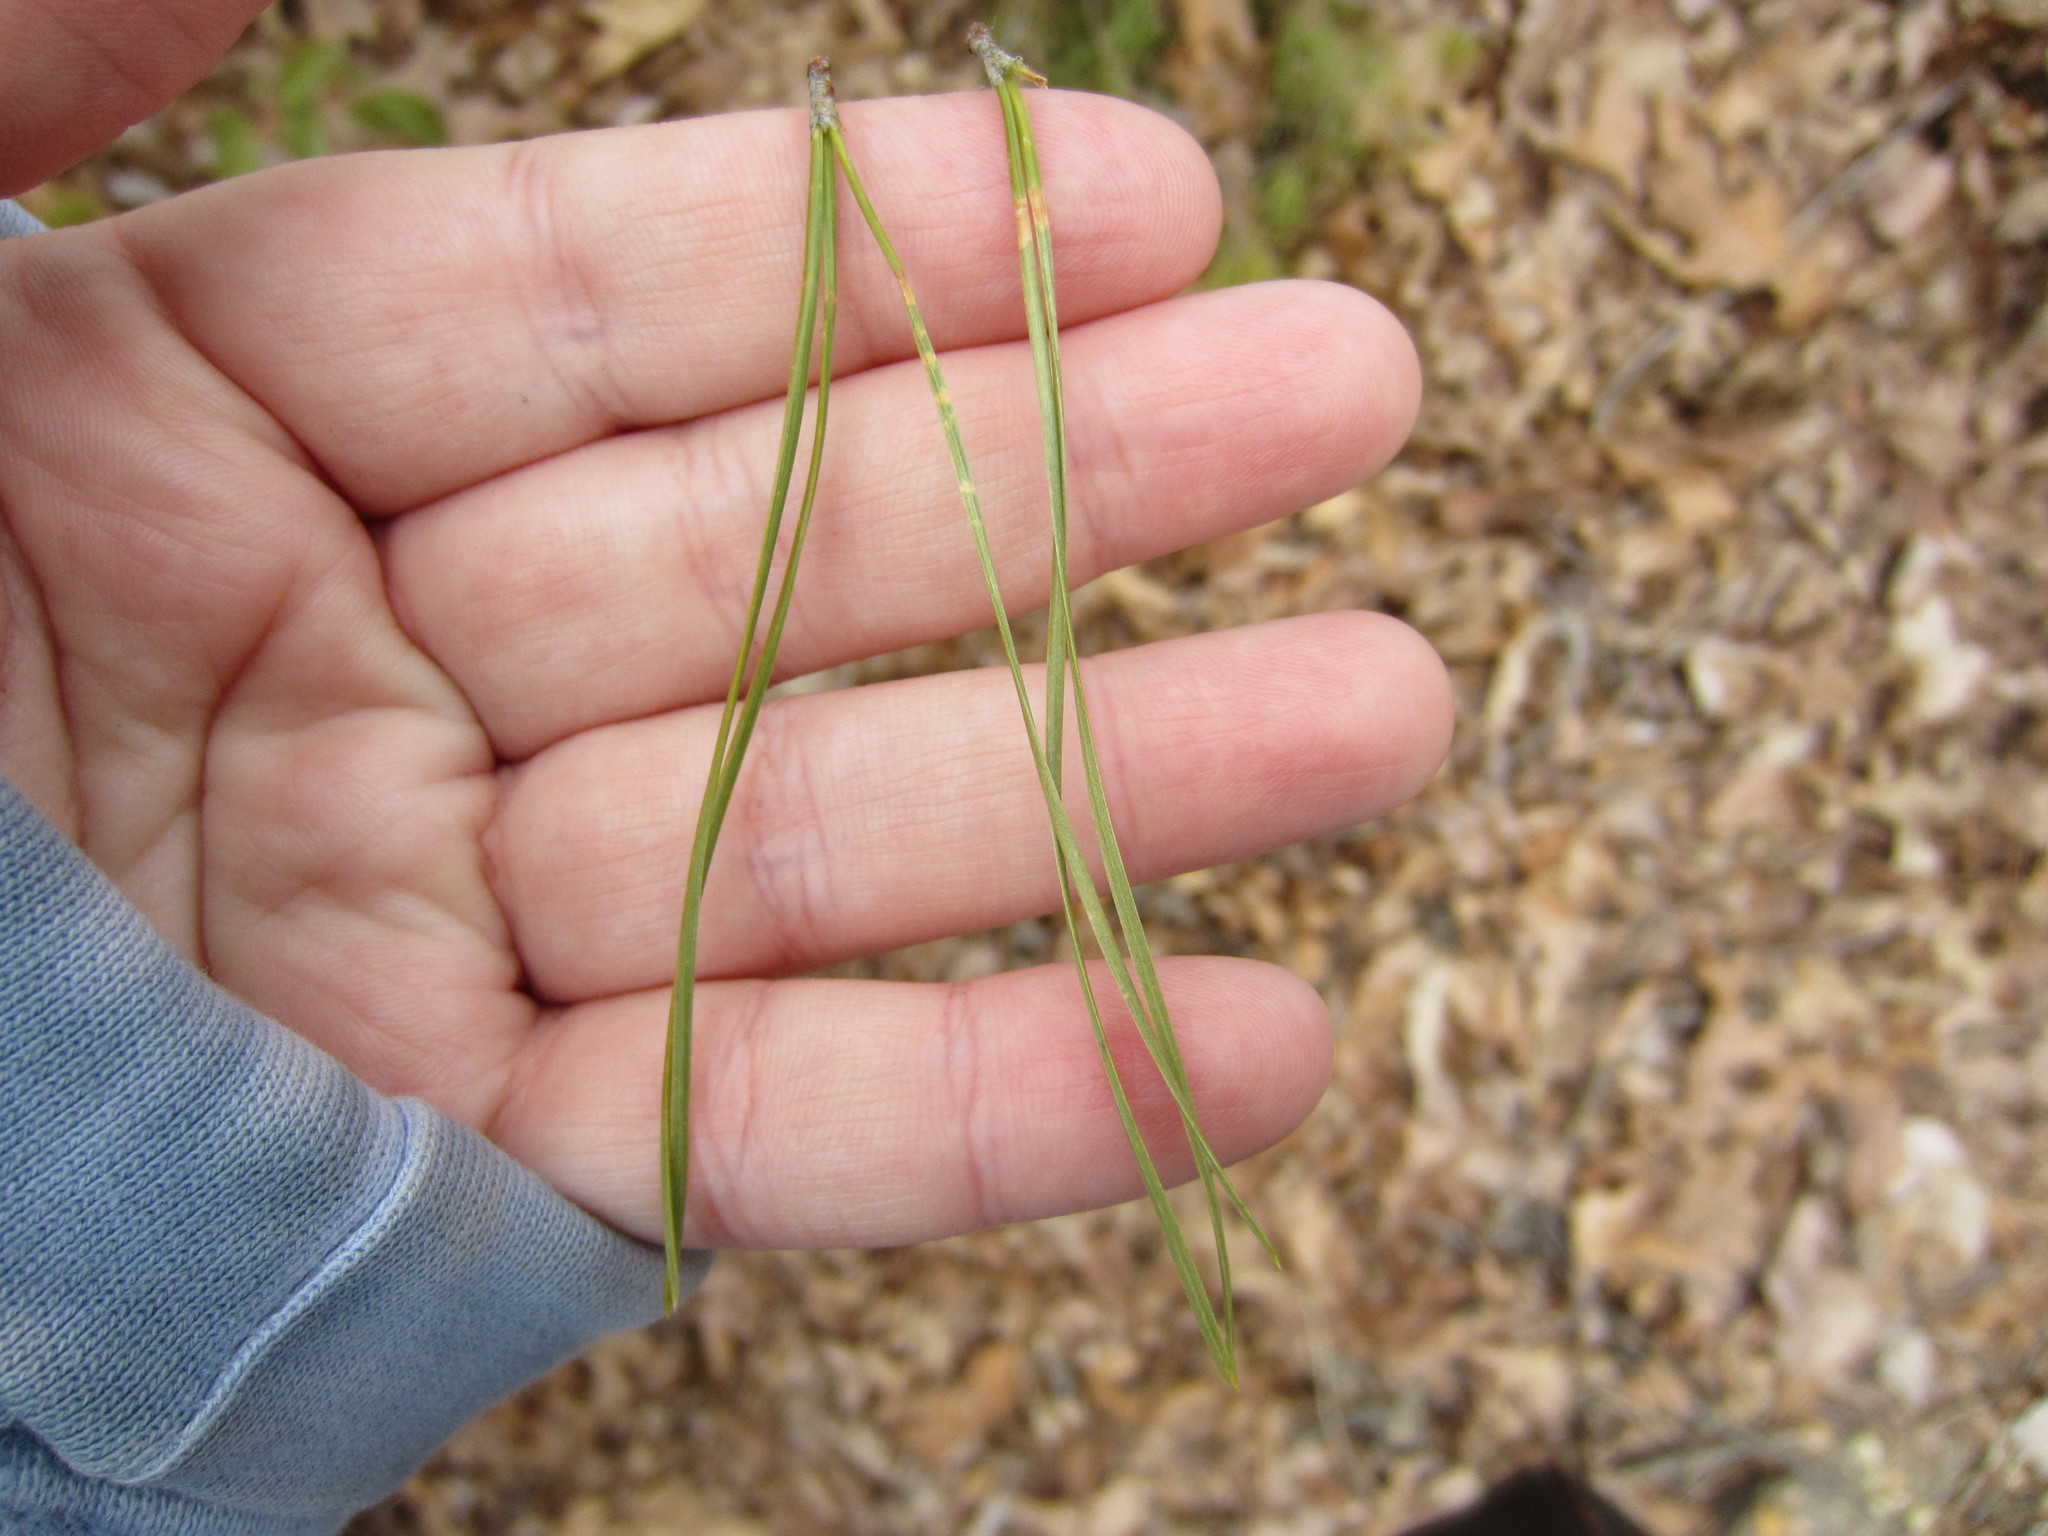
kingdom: Plantae
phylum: Tracheophyta
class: Pinopsida
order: Pinales
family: Pinaceae
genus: Pinus
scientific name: Pinus rigida
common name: Pitch pine
